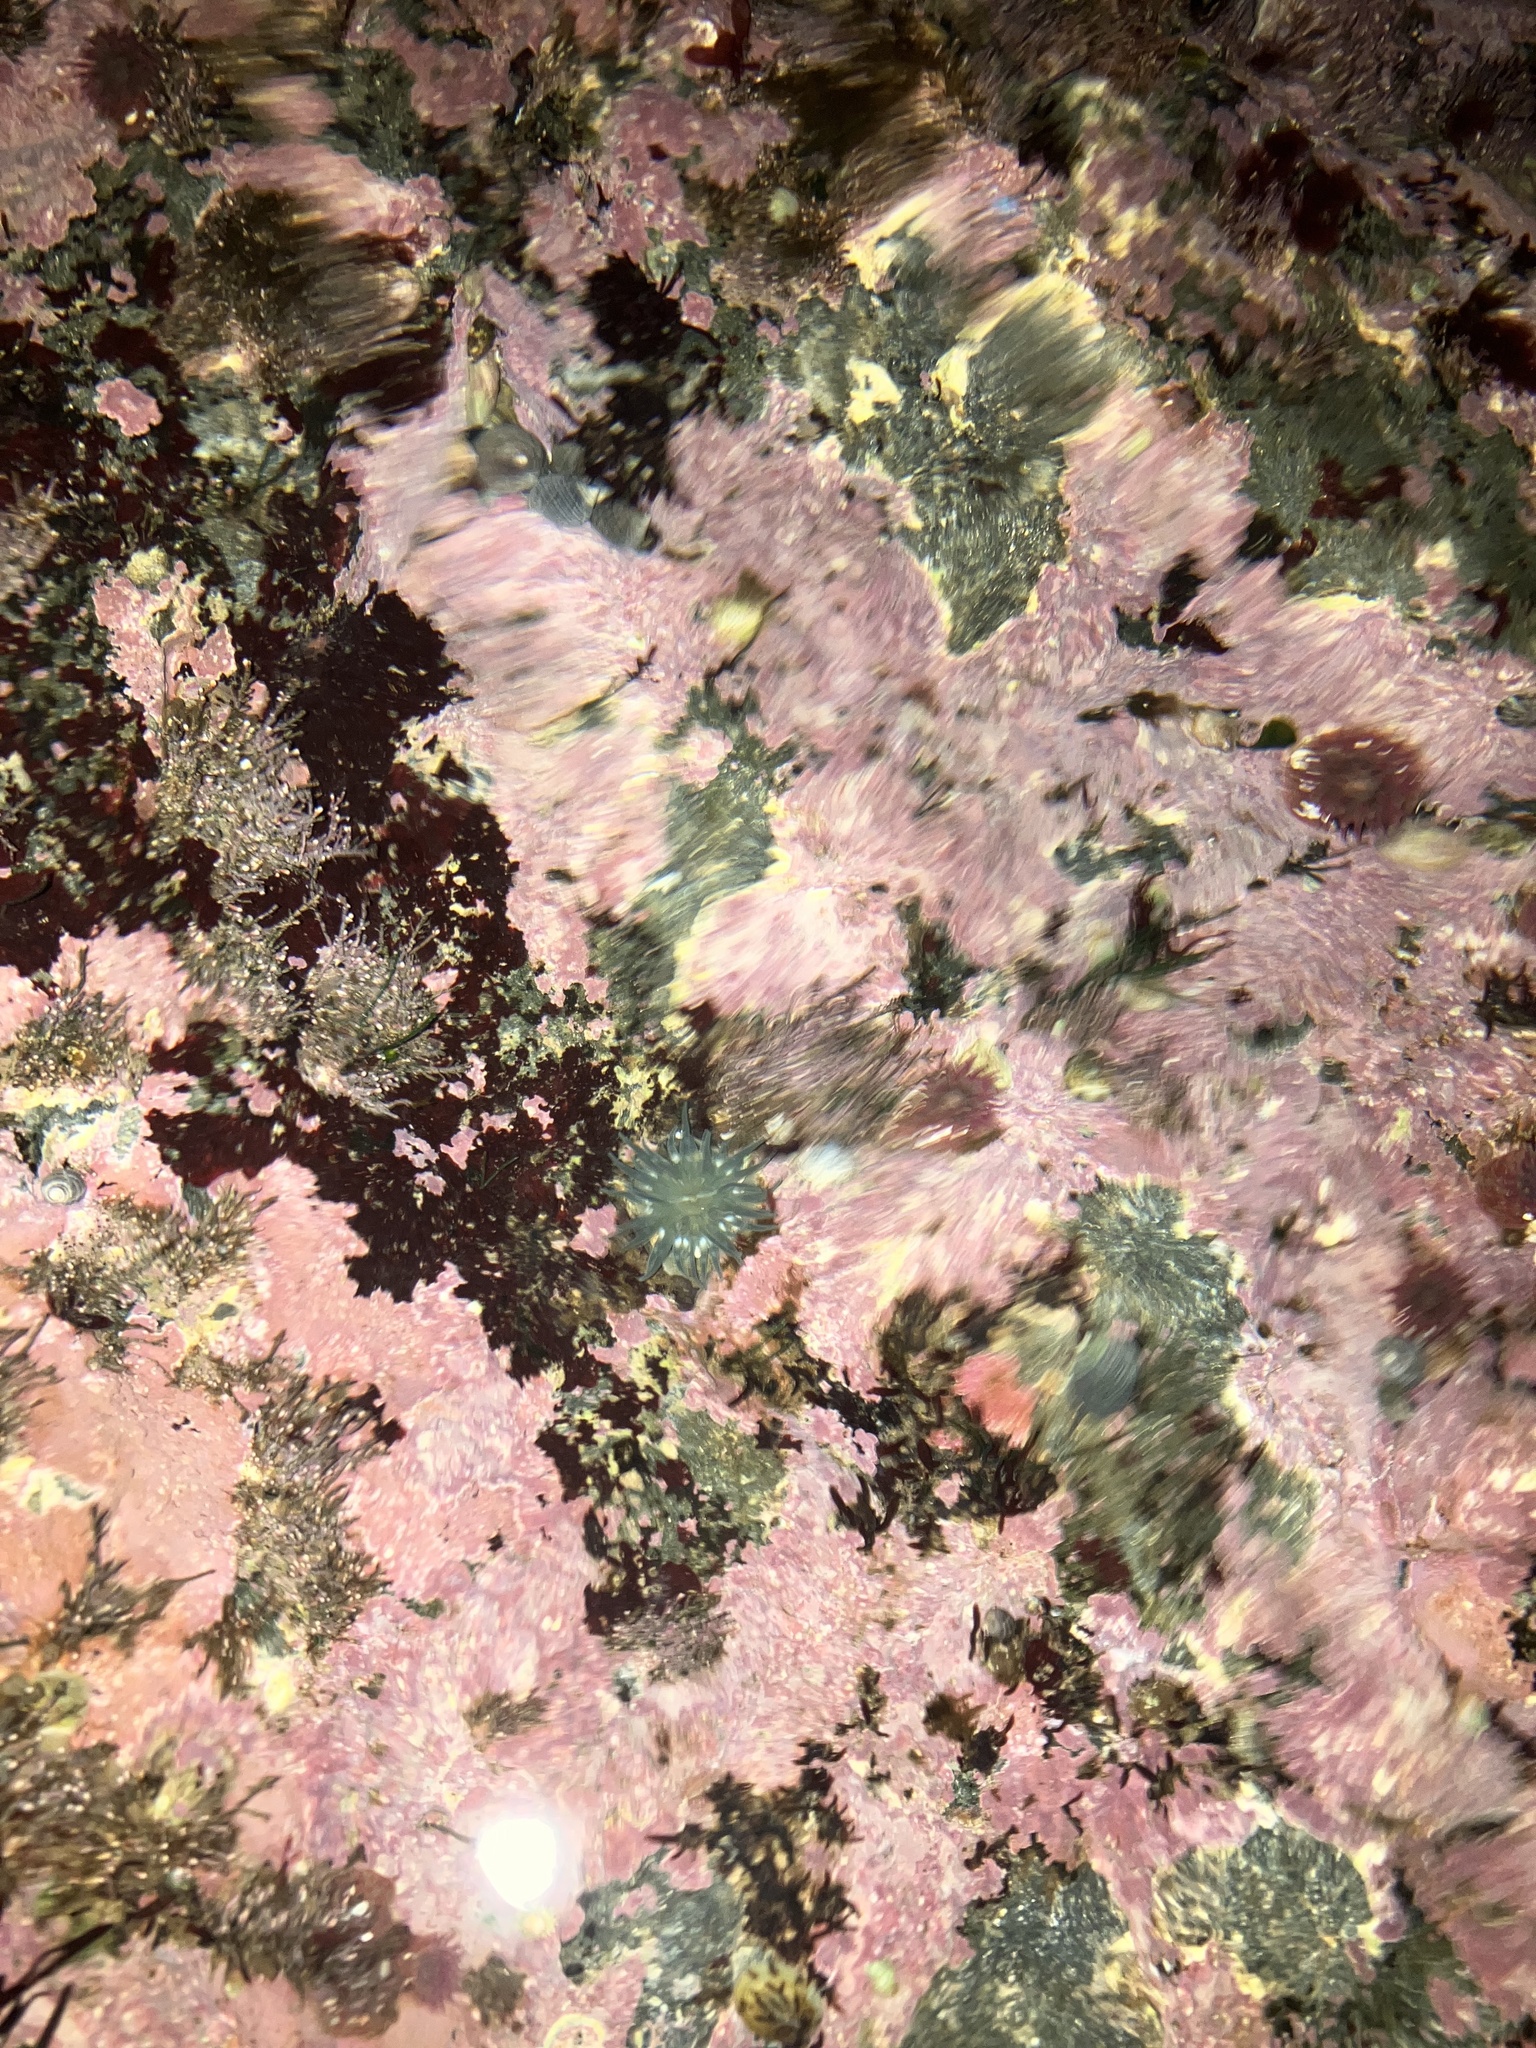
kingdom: Animalia
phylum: Cnidaria
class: Anthozoa
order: Actiniaria
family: Actiniidae
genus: Aulactinia
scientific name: Aulactinia stella
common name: Silver-spotted sea anemone
